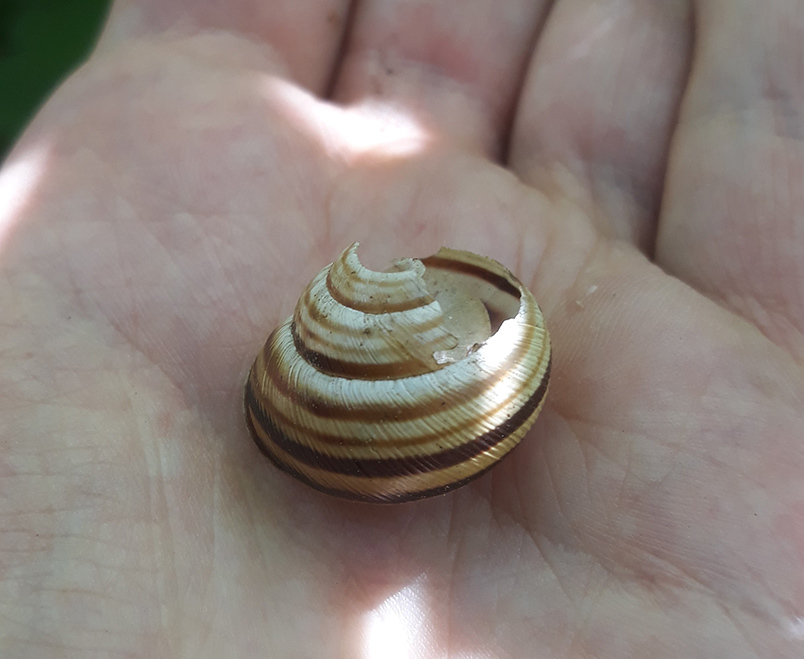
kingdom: Animalia
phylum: Mollusca
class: Gastropoda
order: Stylommatophora
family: Helicidae
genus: Caucasotachea
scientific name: Caucasotachea vindobonensis
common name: European helicid land snail
